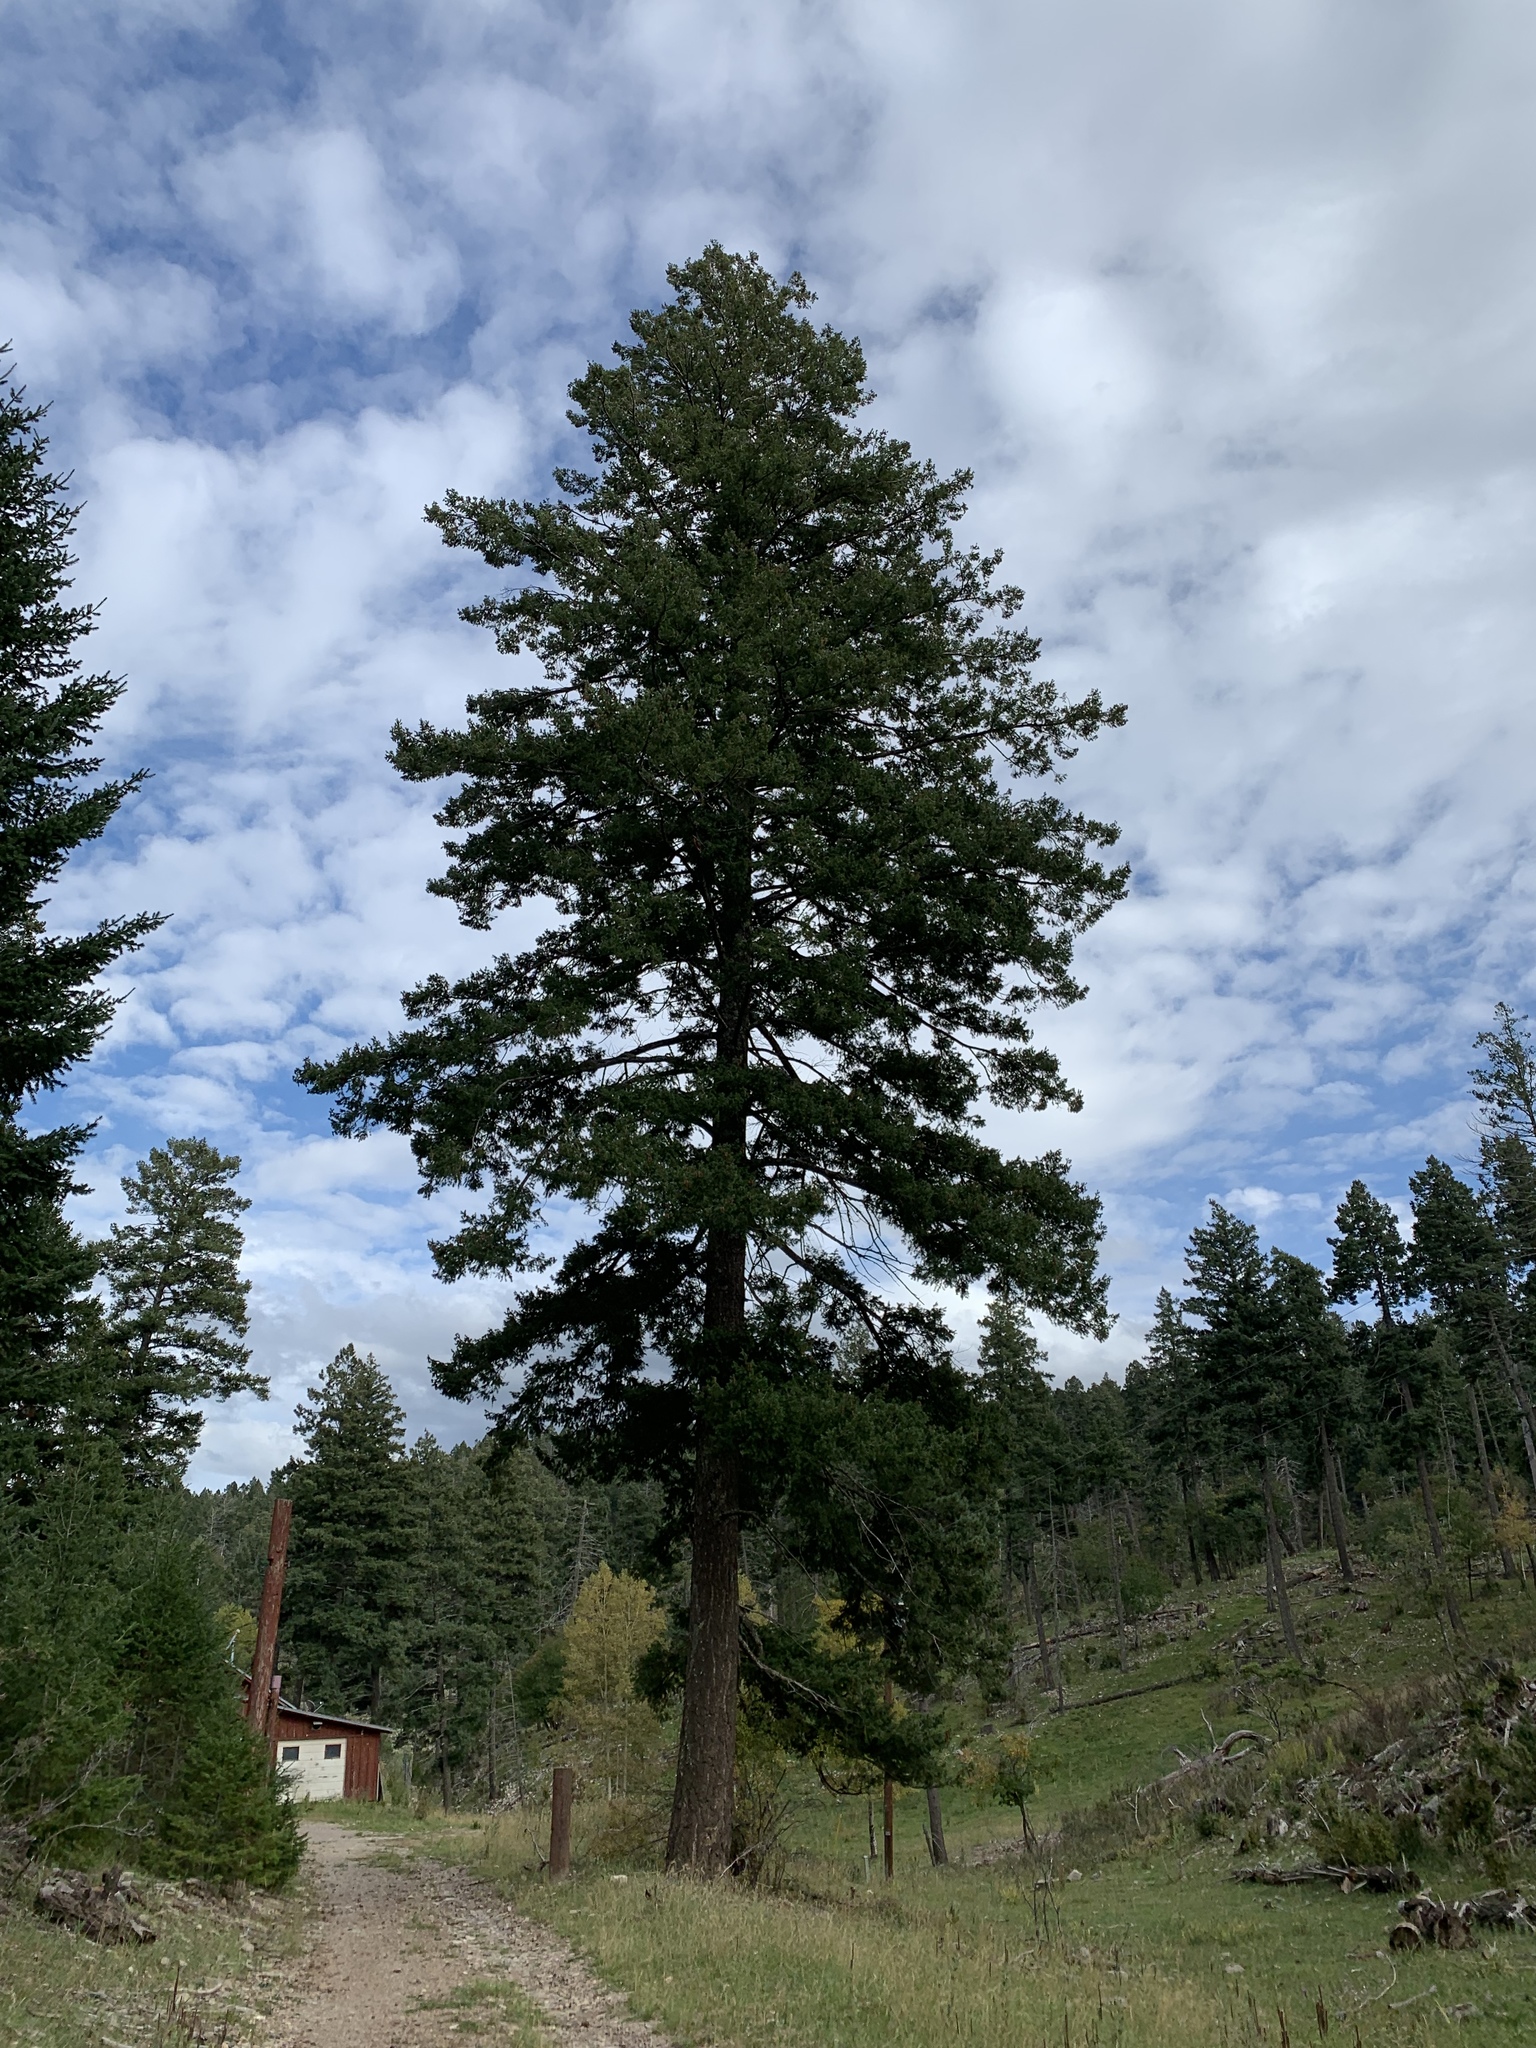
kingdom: Plantae
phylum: Tracheophyta
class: Pinopsida
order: Pinales
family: Pinaceae
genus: Pseudotsuga
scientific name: Pseudotsuga menziesii
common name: Douglas fir
